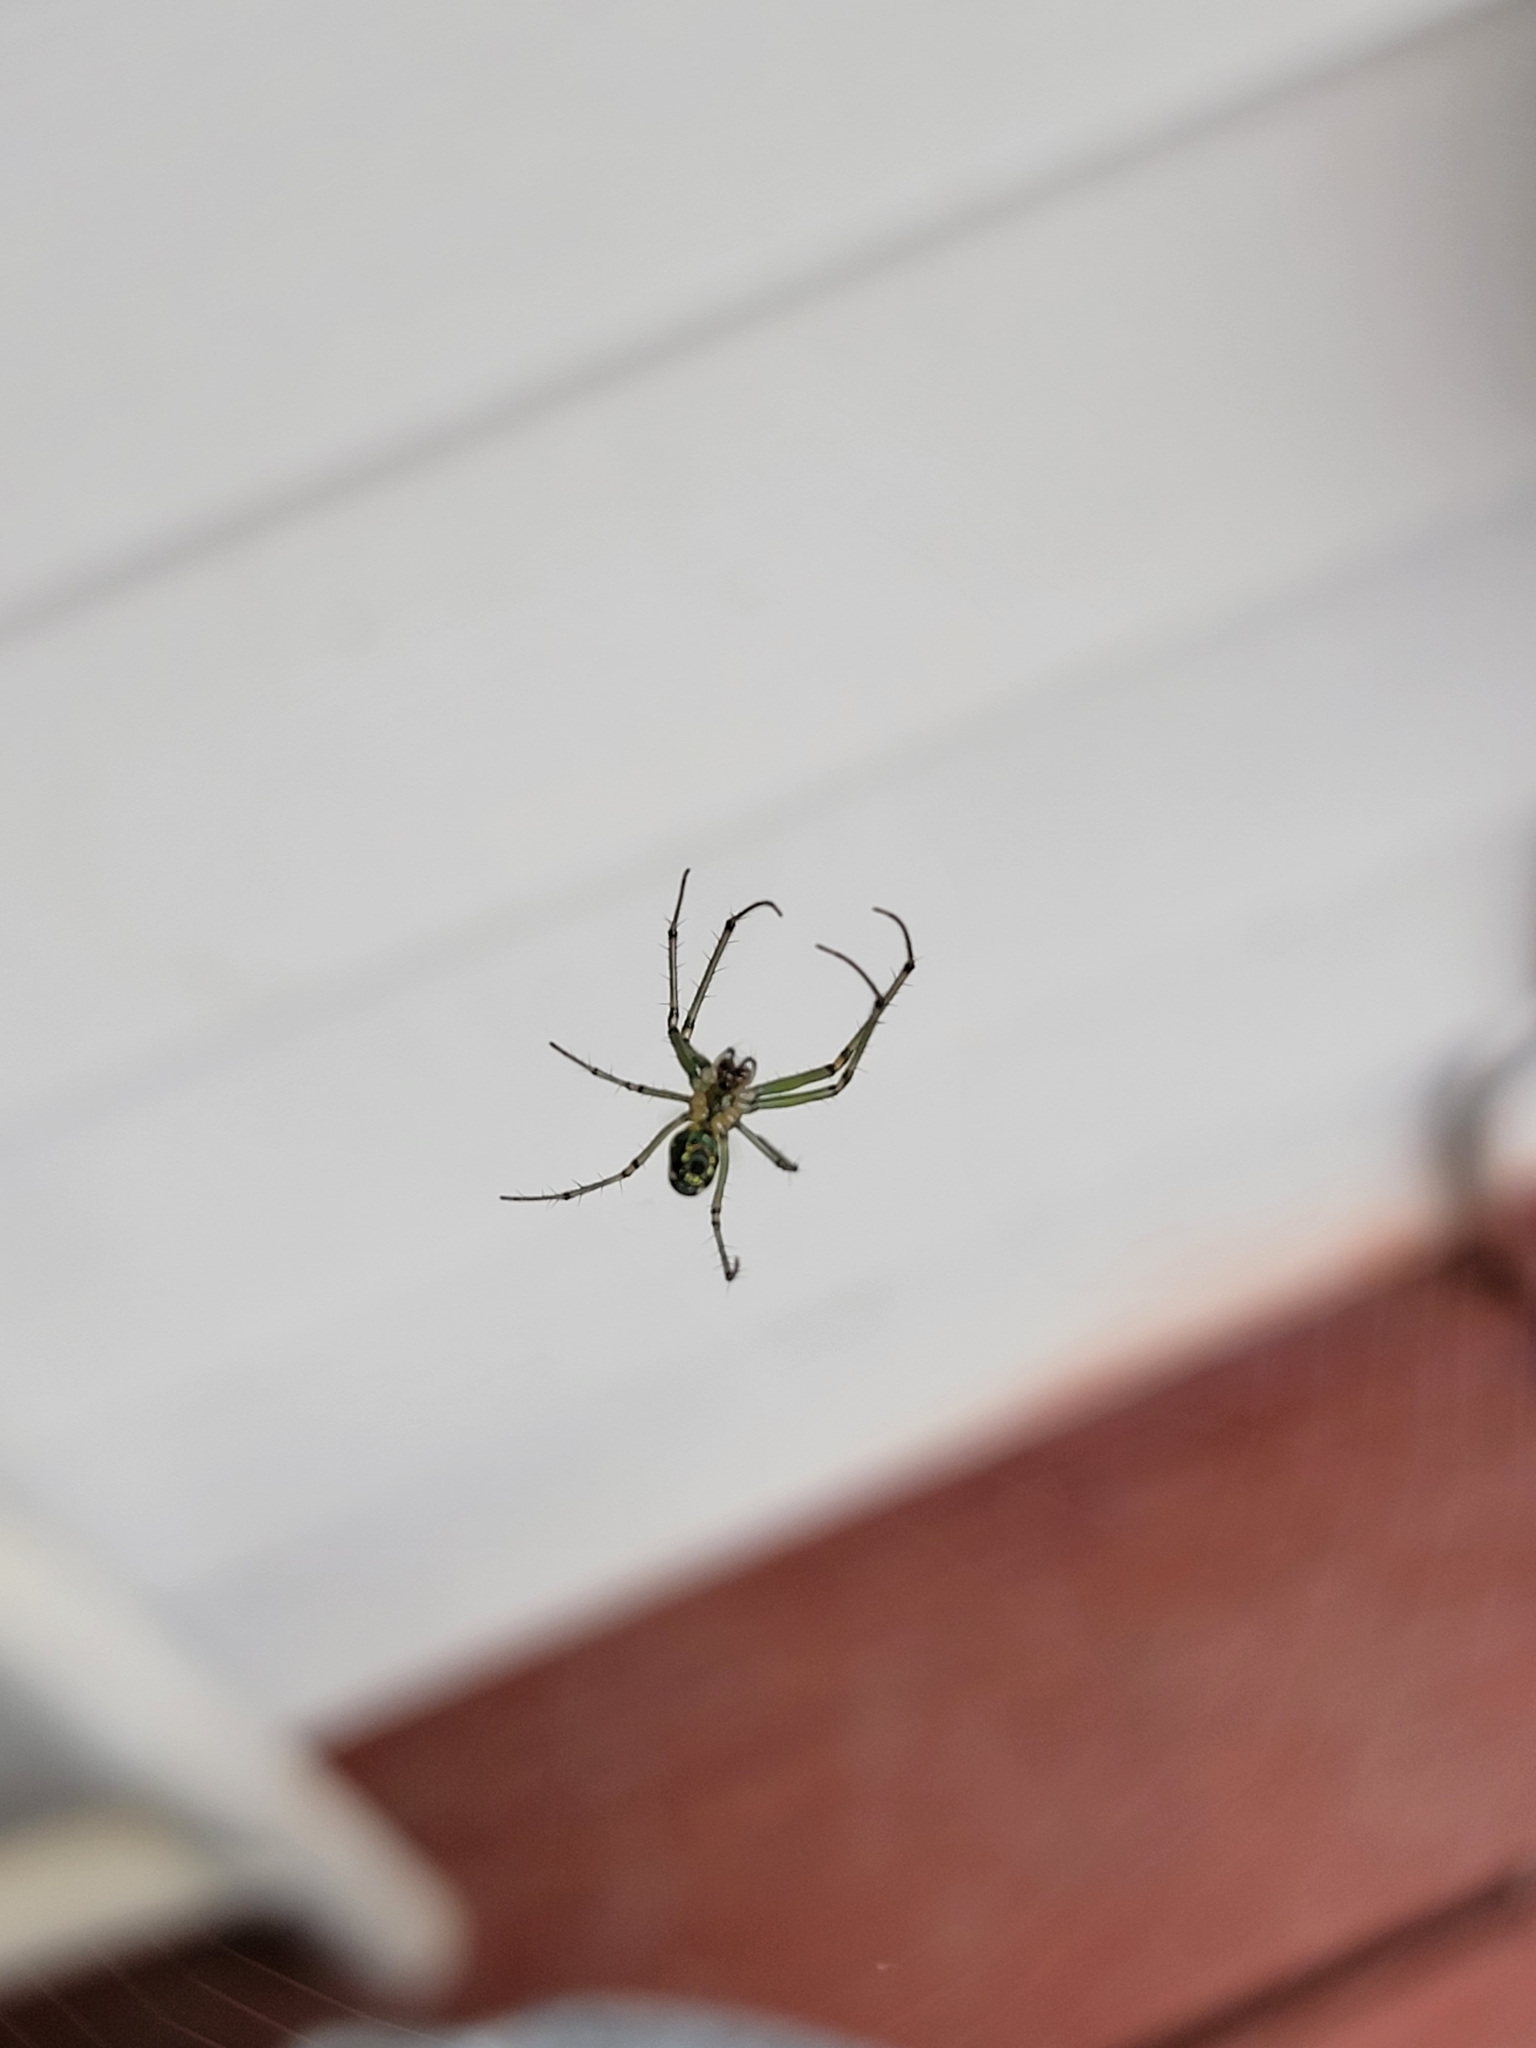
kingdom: Animalia
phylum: Arthropoda
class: Arachnida
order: Araneae
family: Tetragnathidae
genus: Leucauge
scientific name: Leucauge venusta
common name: Longjawed orb weavers
